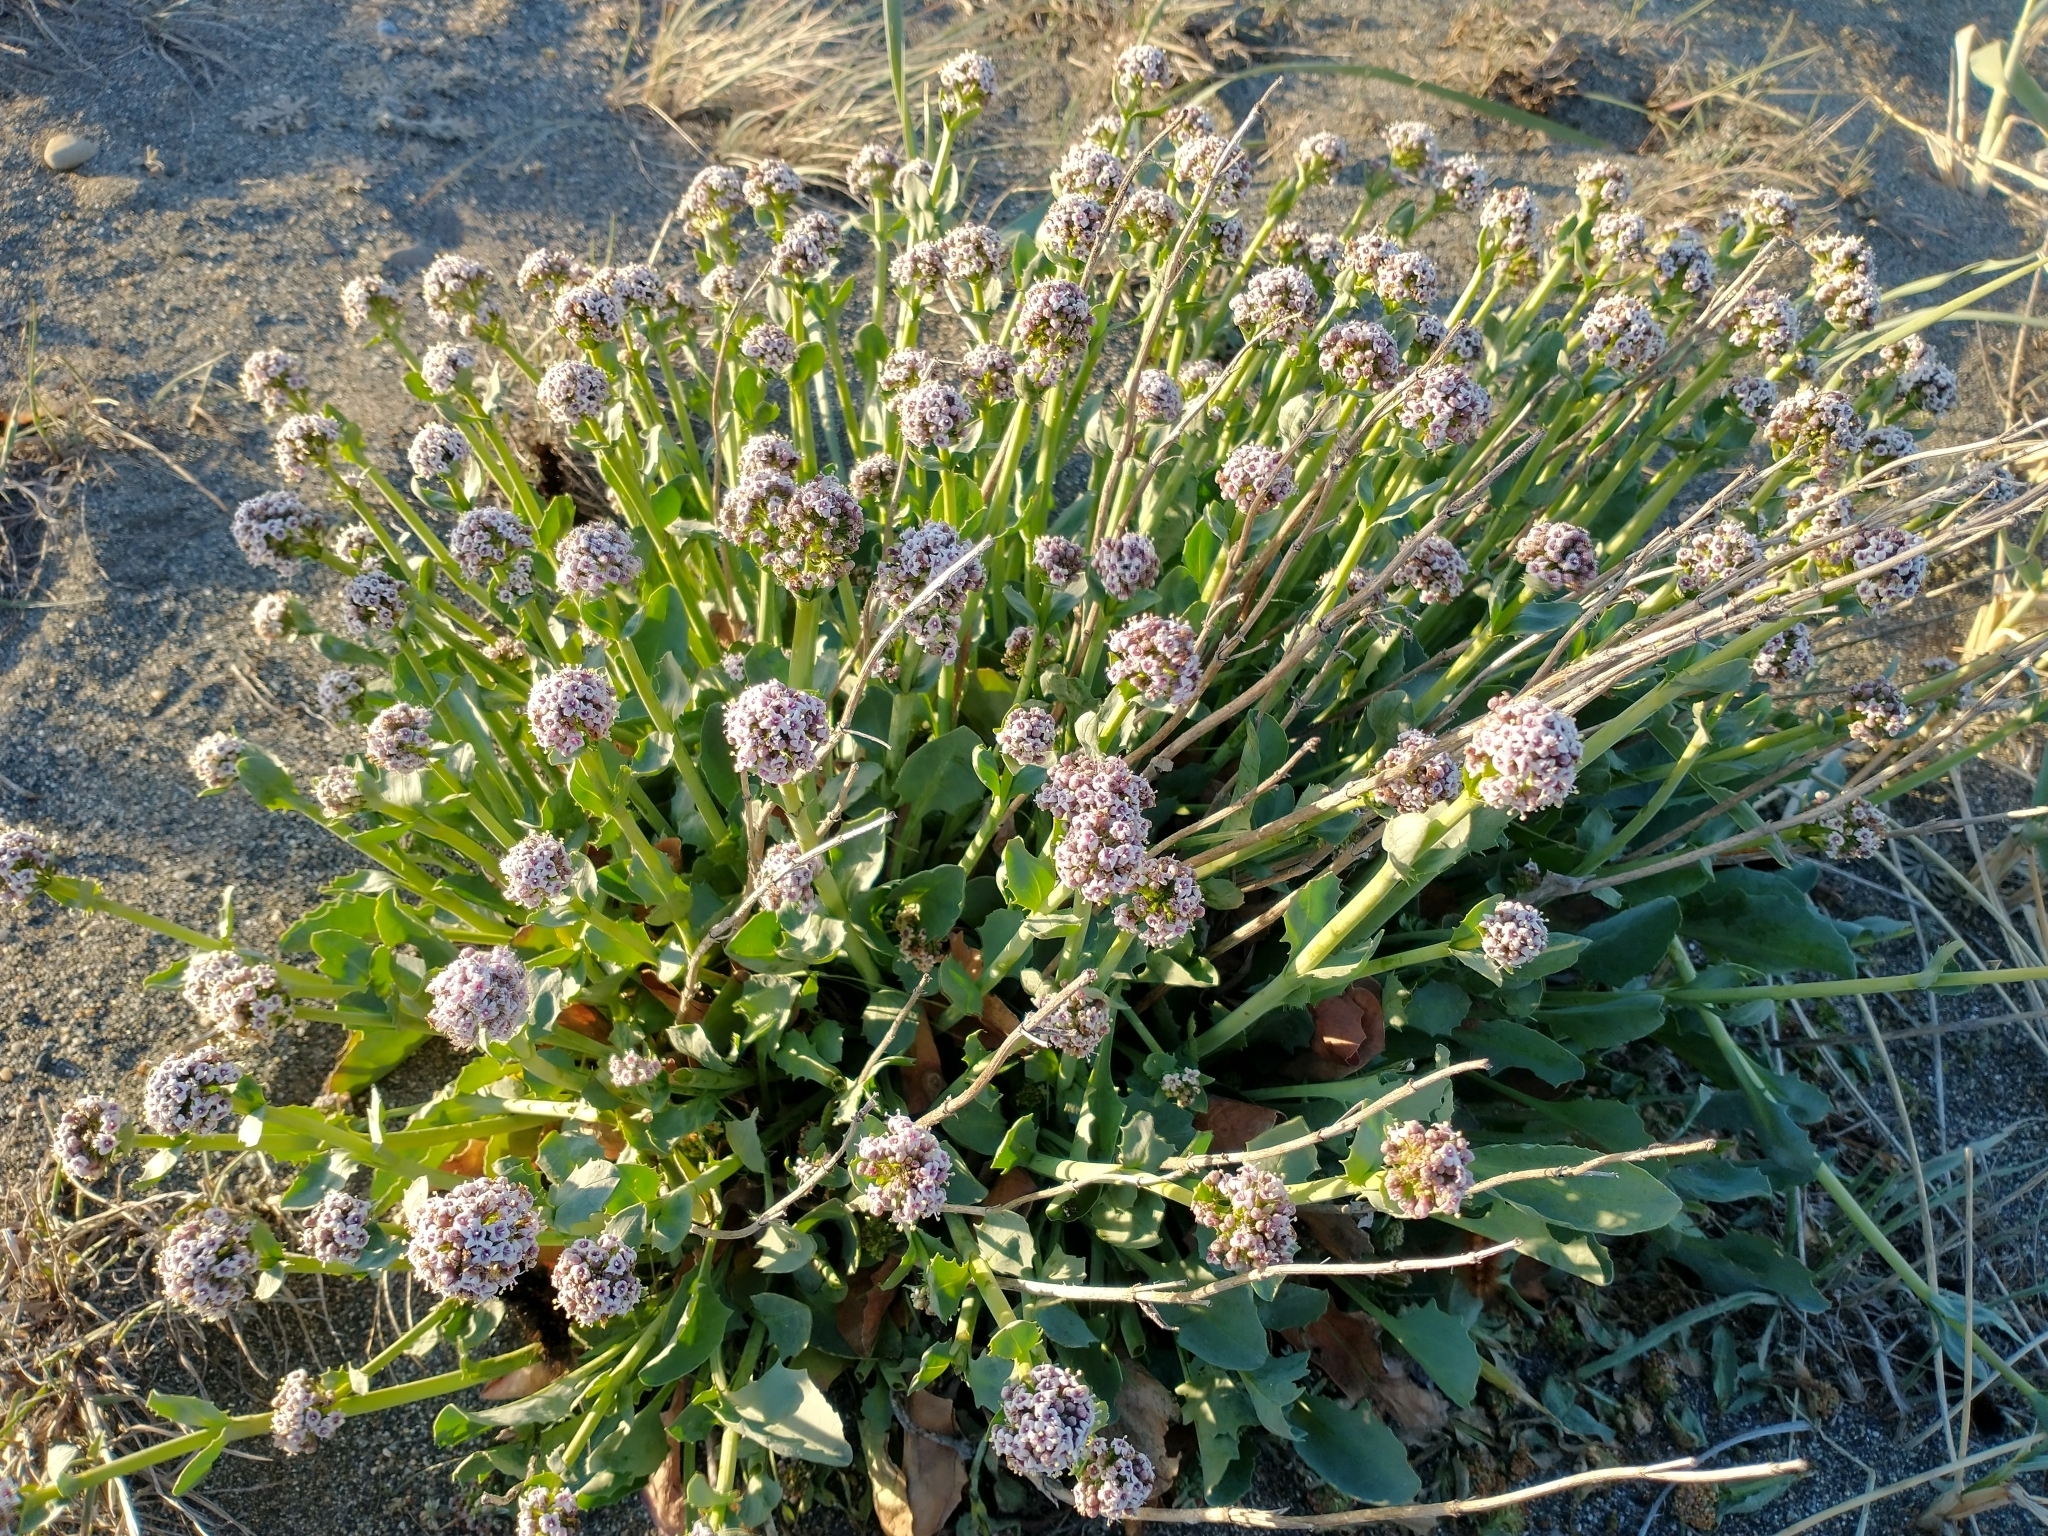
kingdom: Plantae
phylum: Tracheophyta
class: Magnoliopsida
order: Dipsacales
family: Caprifoliaceae
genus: Valeriana
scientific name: Valeriana carnosa
